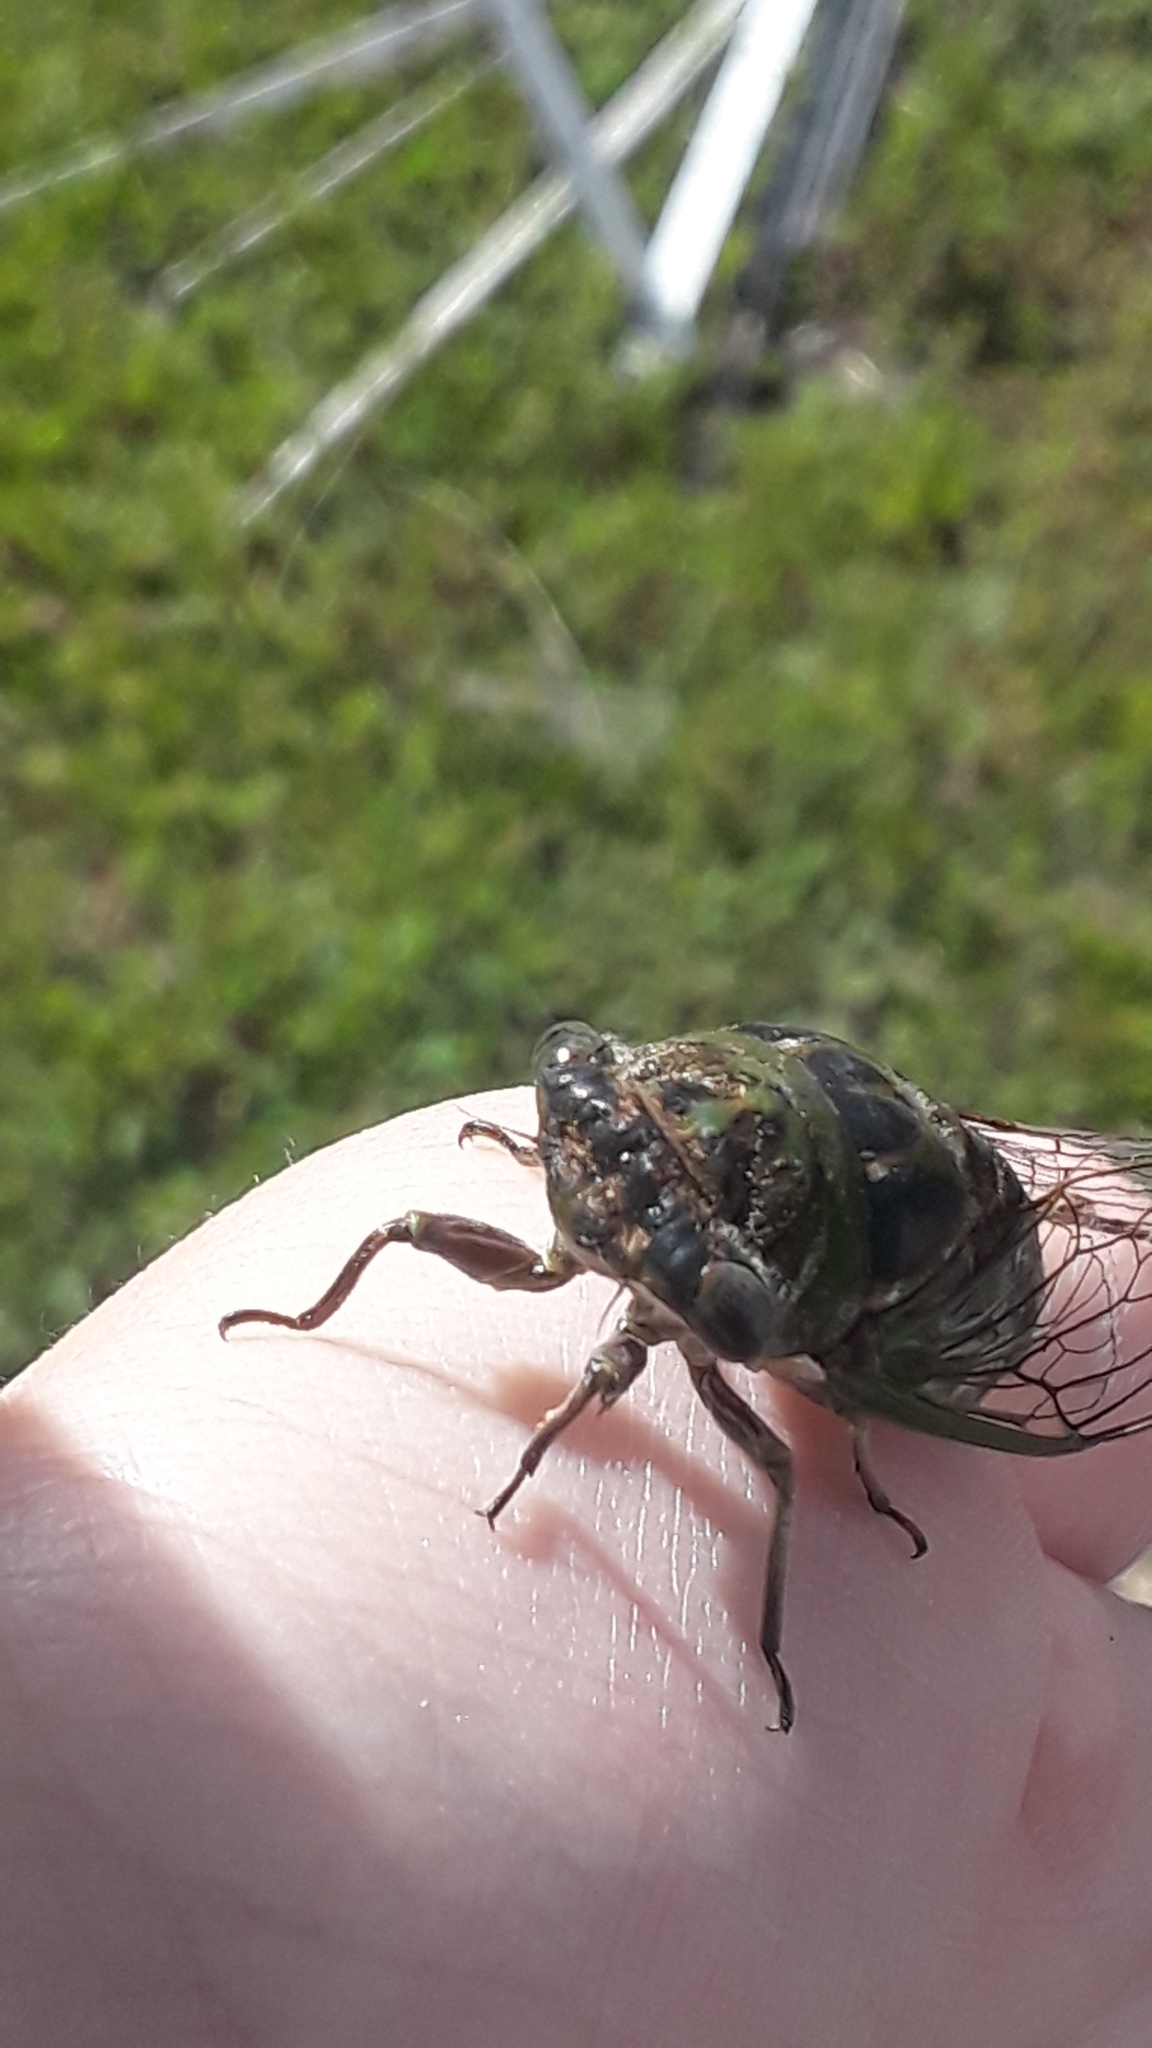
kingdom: Animalia
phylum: Arthropoda
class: Insecta
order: Hemiptera
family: Cicadidae
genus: Neotibicen
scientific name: Neotibicen davisi
